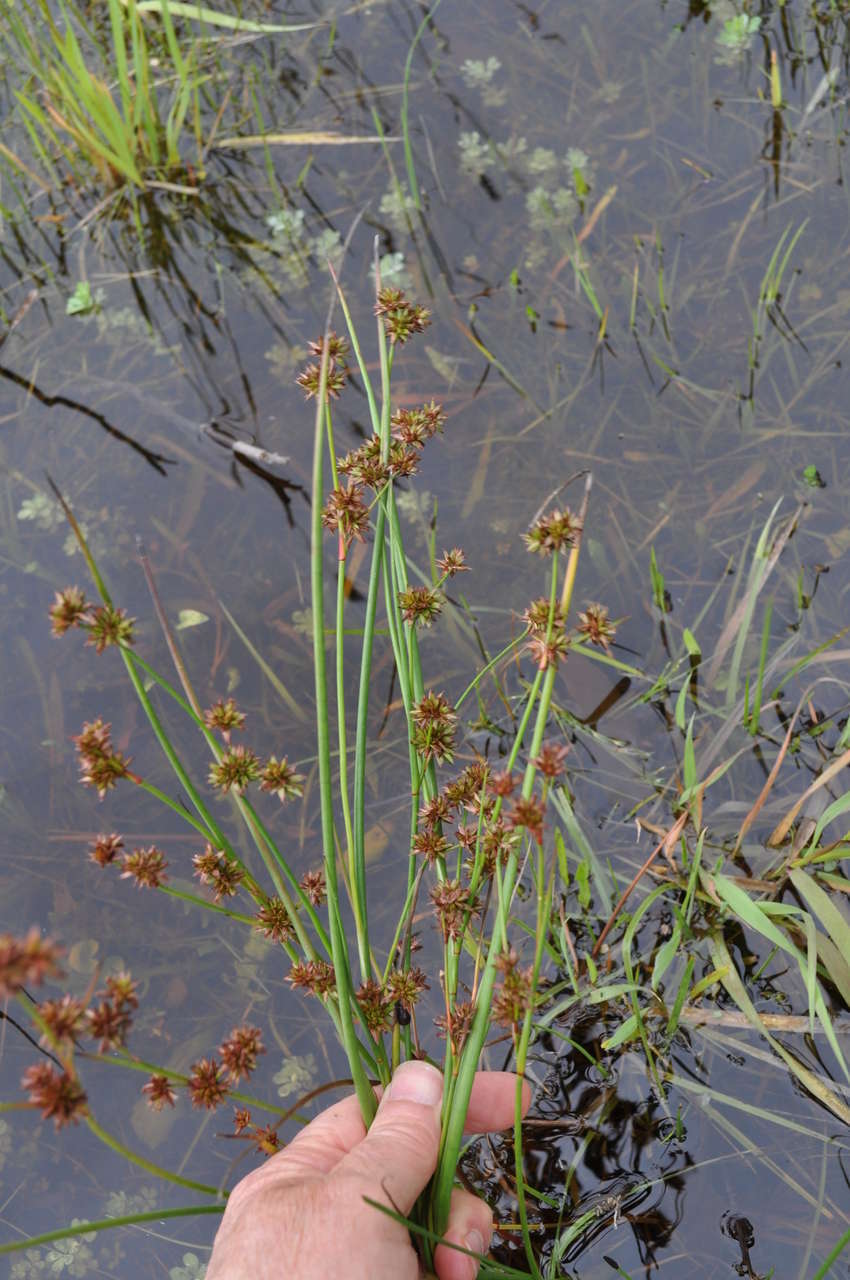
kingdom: Plantae
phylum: Tracheophyta
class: Liliopsida
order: Poales
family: Juncaceae
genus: Juncus
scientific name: Juncus holoschoenus
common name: Joint-leaf rush
